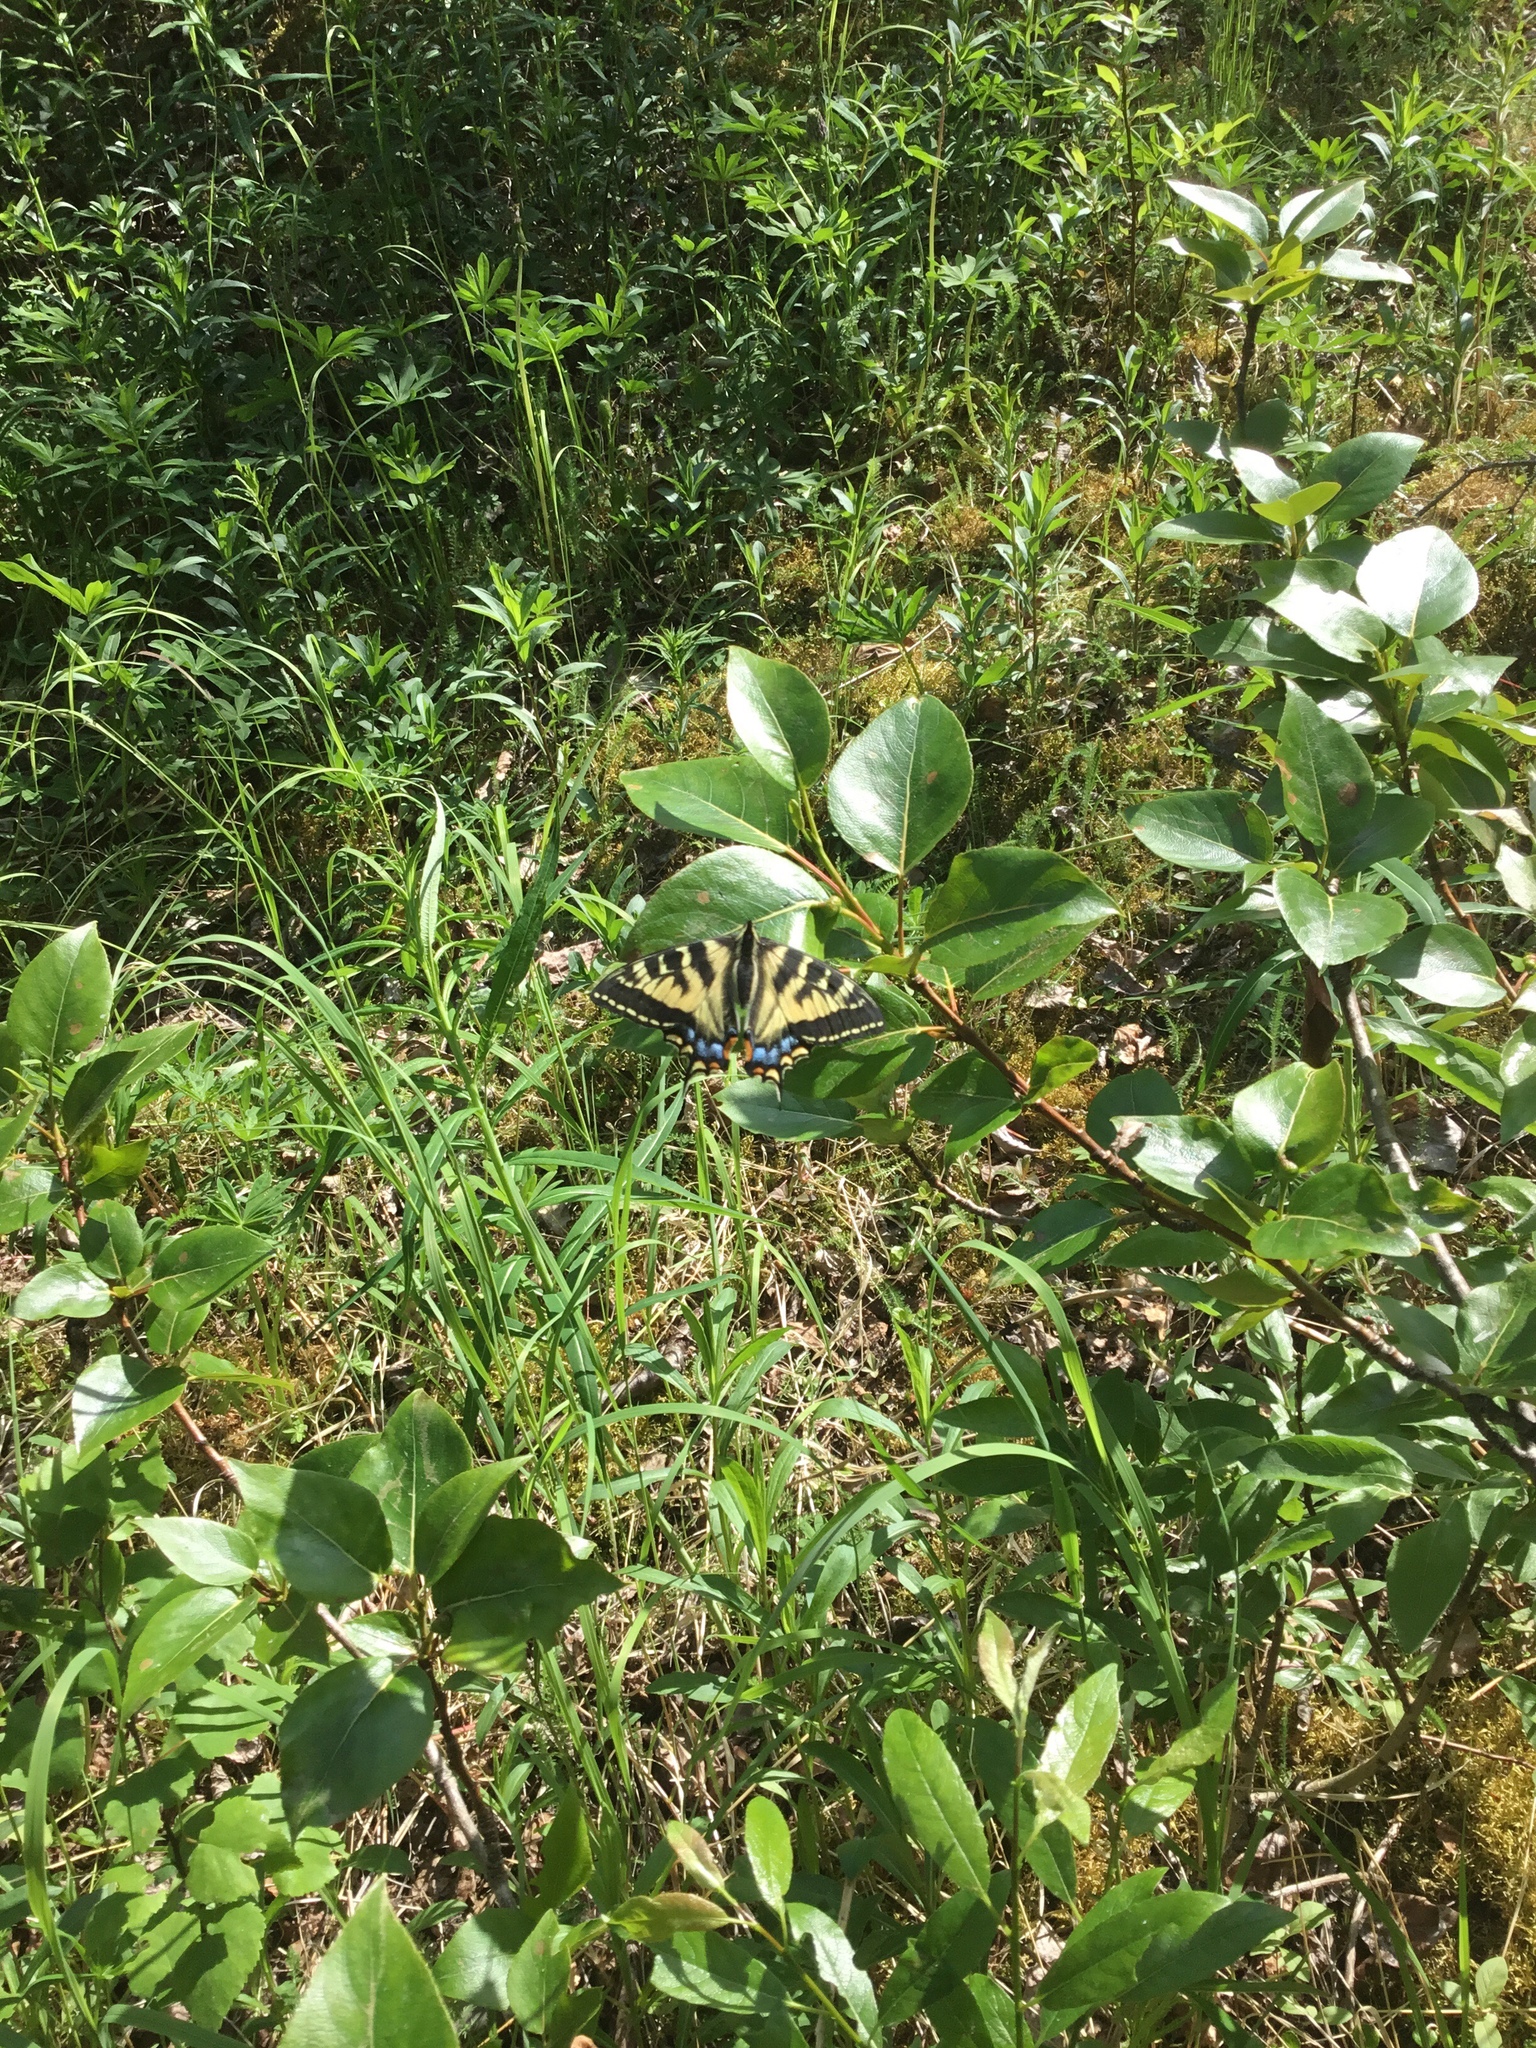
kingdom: Animalia
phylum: Arthropoda
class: Insecta
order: Lepidoptera
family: Papilionidae
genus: Papilio
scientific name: Papilio canadensis
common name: Canadian tiger swallowtail
